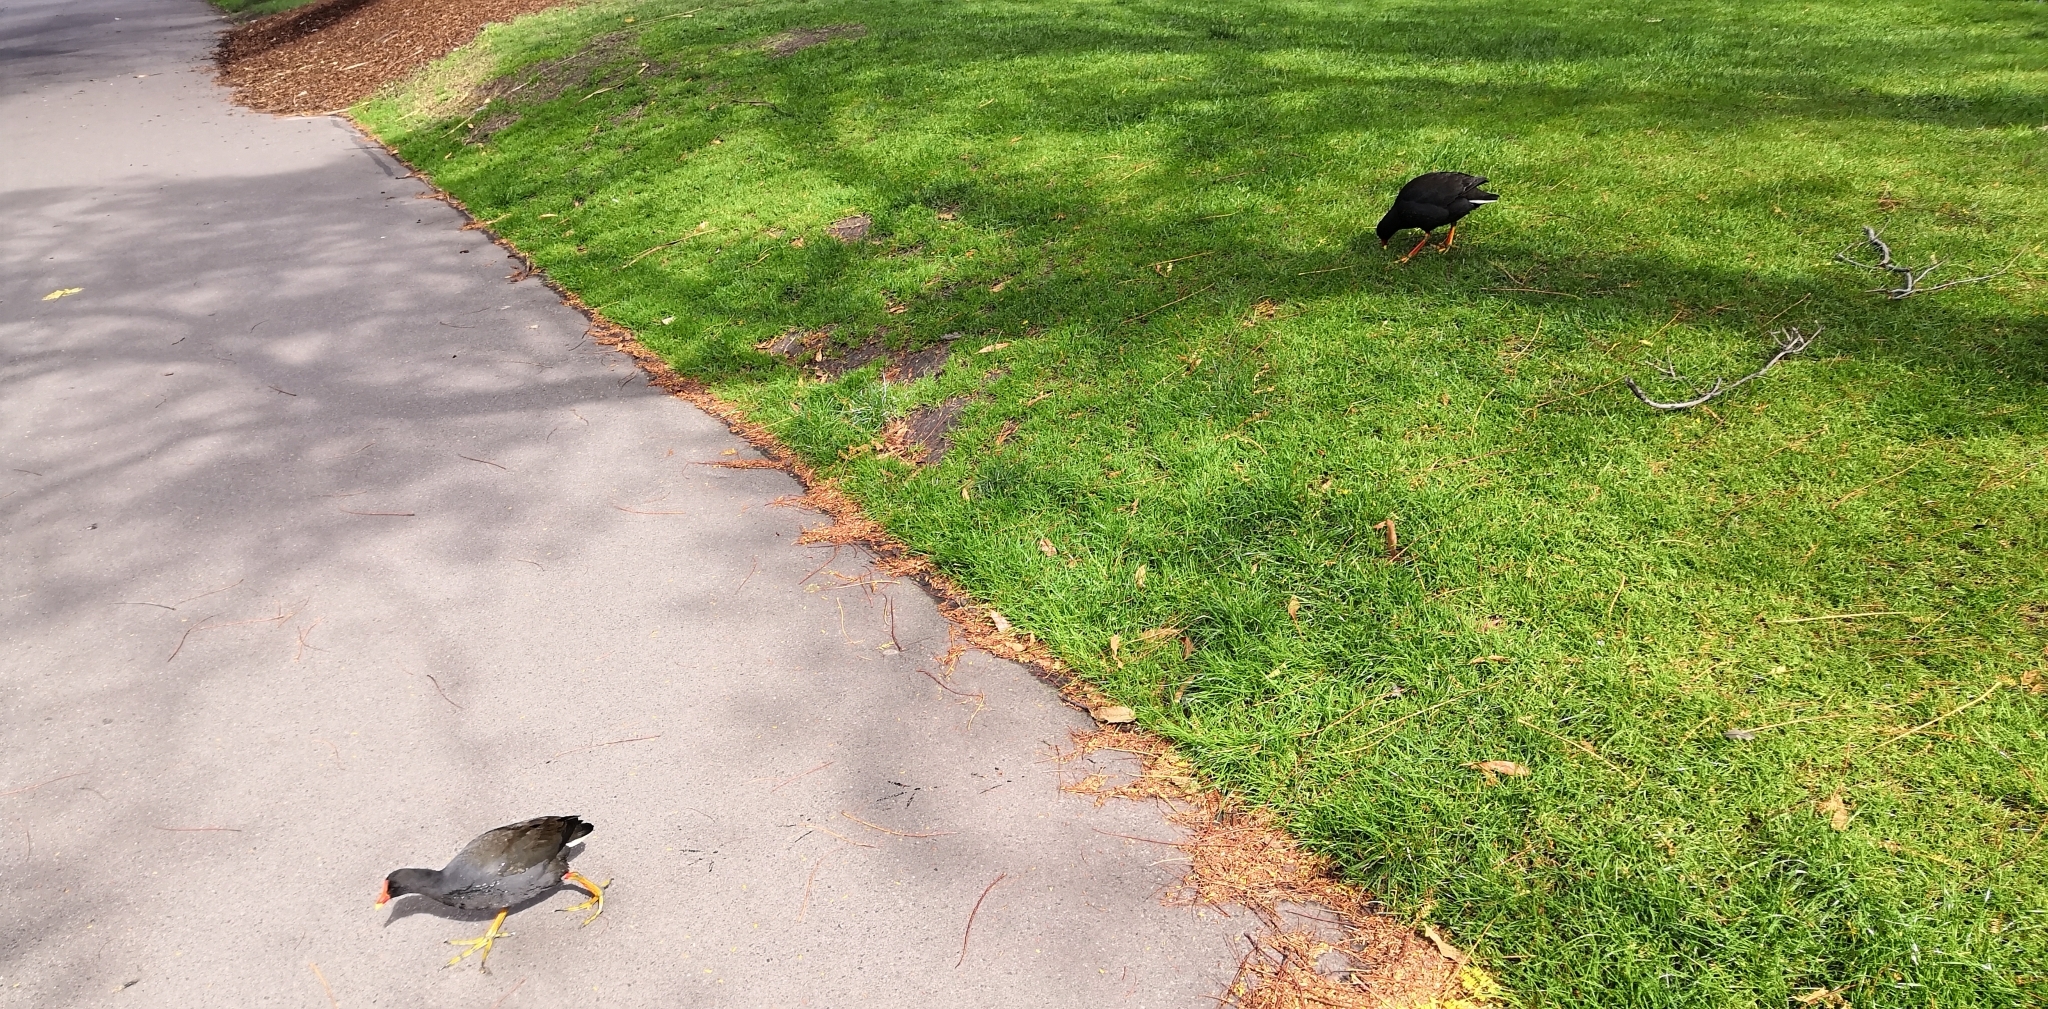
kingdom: Animalia
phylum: Chordata
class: Aves
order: Gruiformes
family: Rallidae
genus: Gallinula
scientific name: Gallinula tenebrosa
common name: Dusky moorhen
